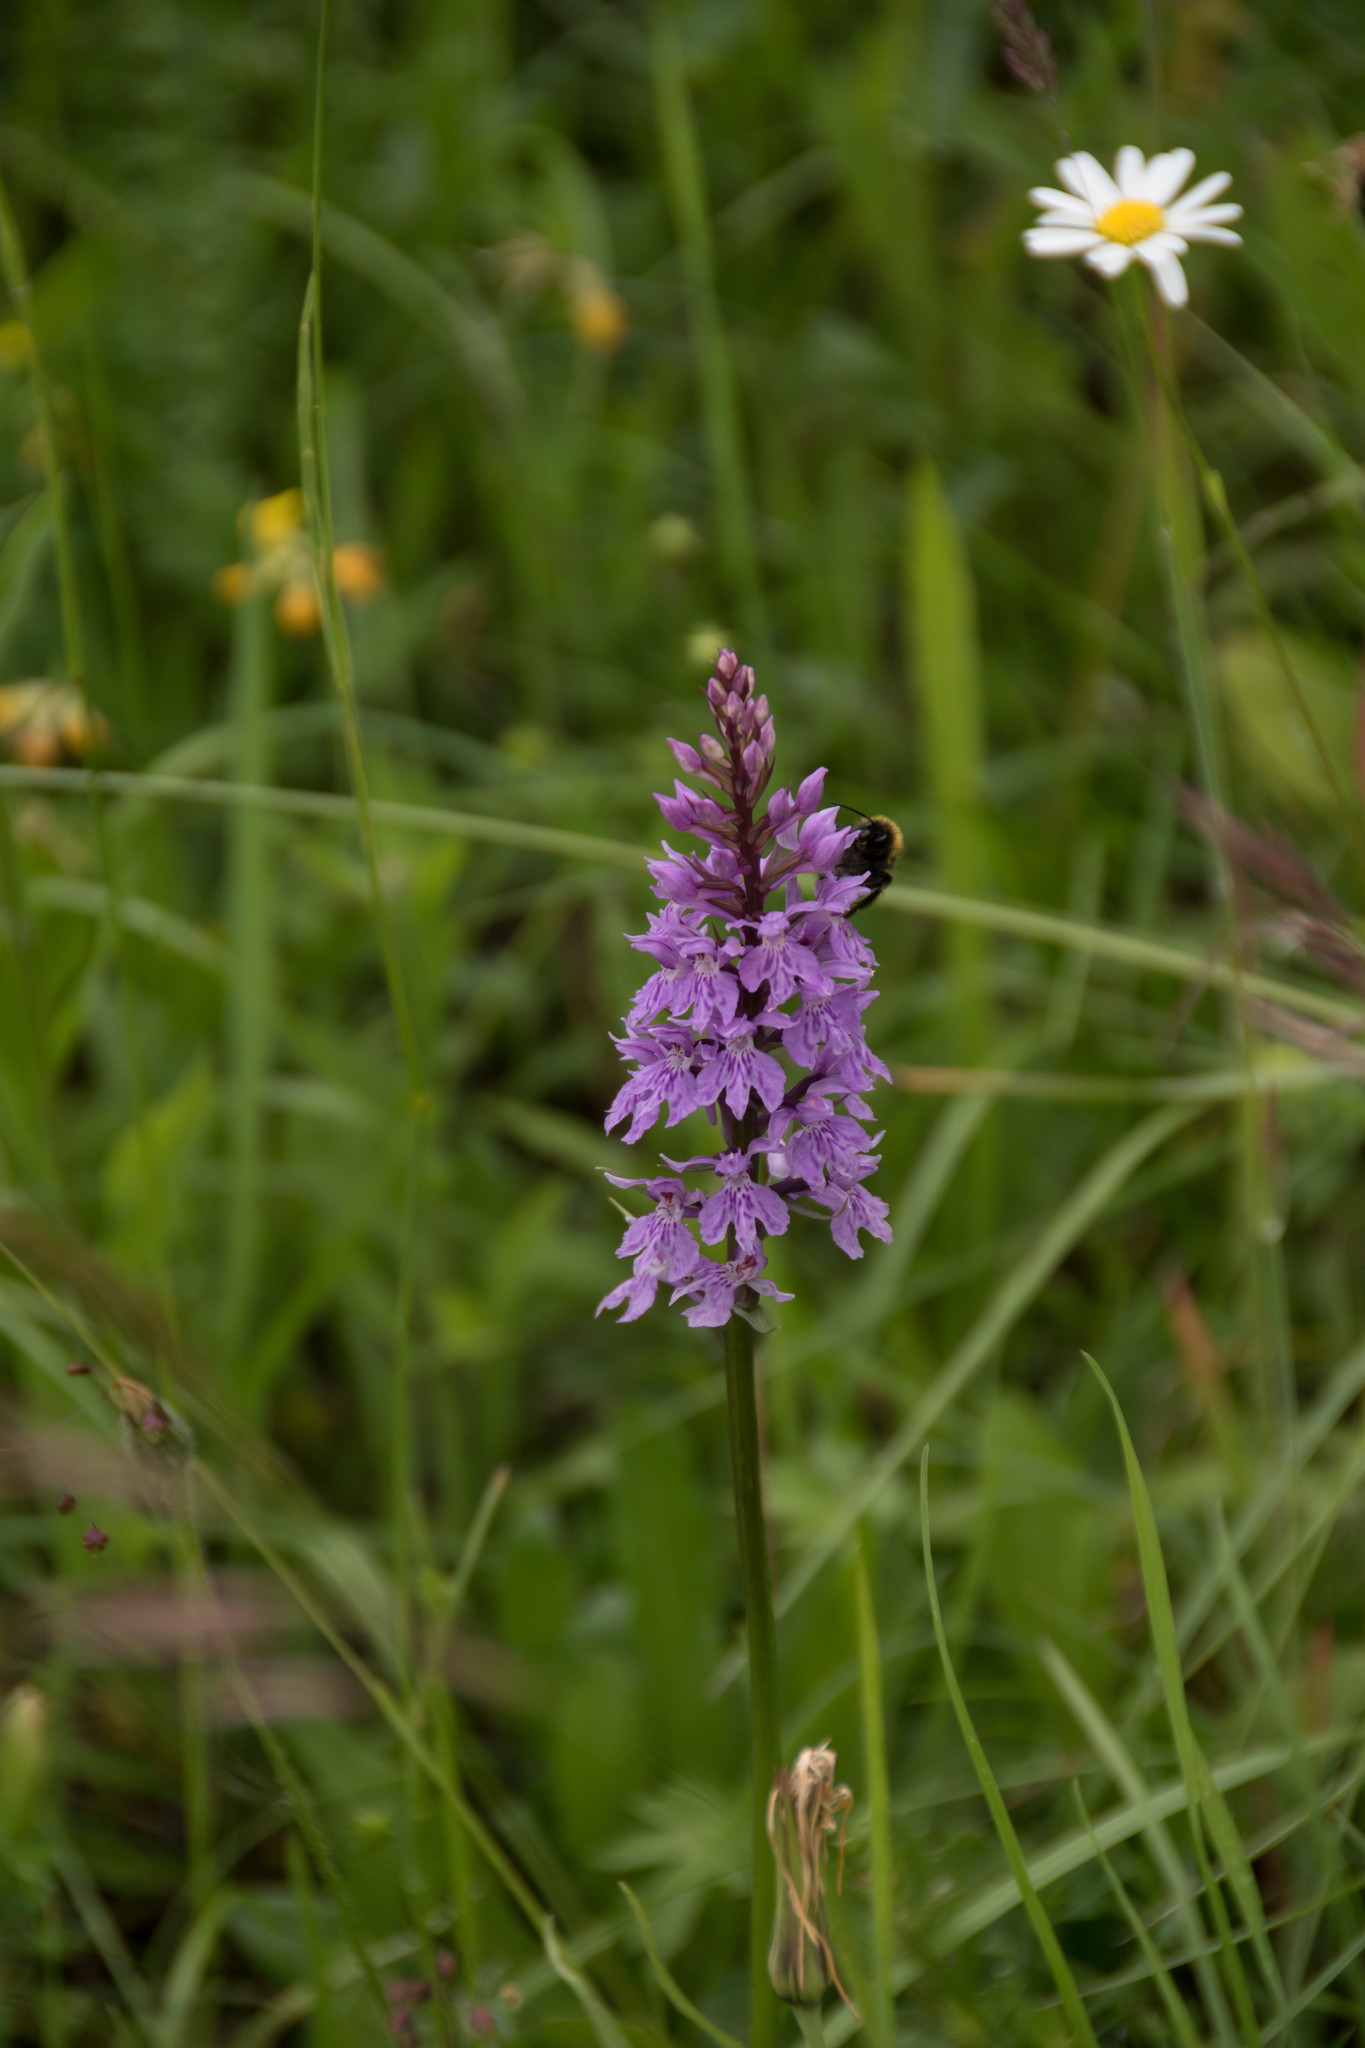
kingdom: Plantae
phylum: Tracheophyta
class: Liliopsida
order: Asparagales
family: Orchidaceae
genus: Dactylorhiza
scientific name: Dactylorhiza maculata
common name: Heath spotted-orchid
